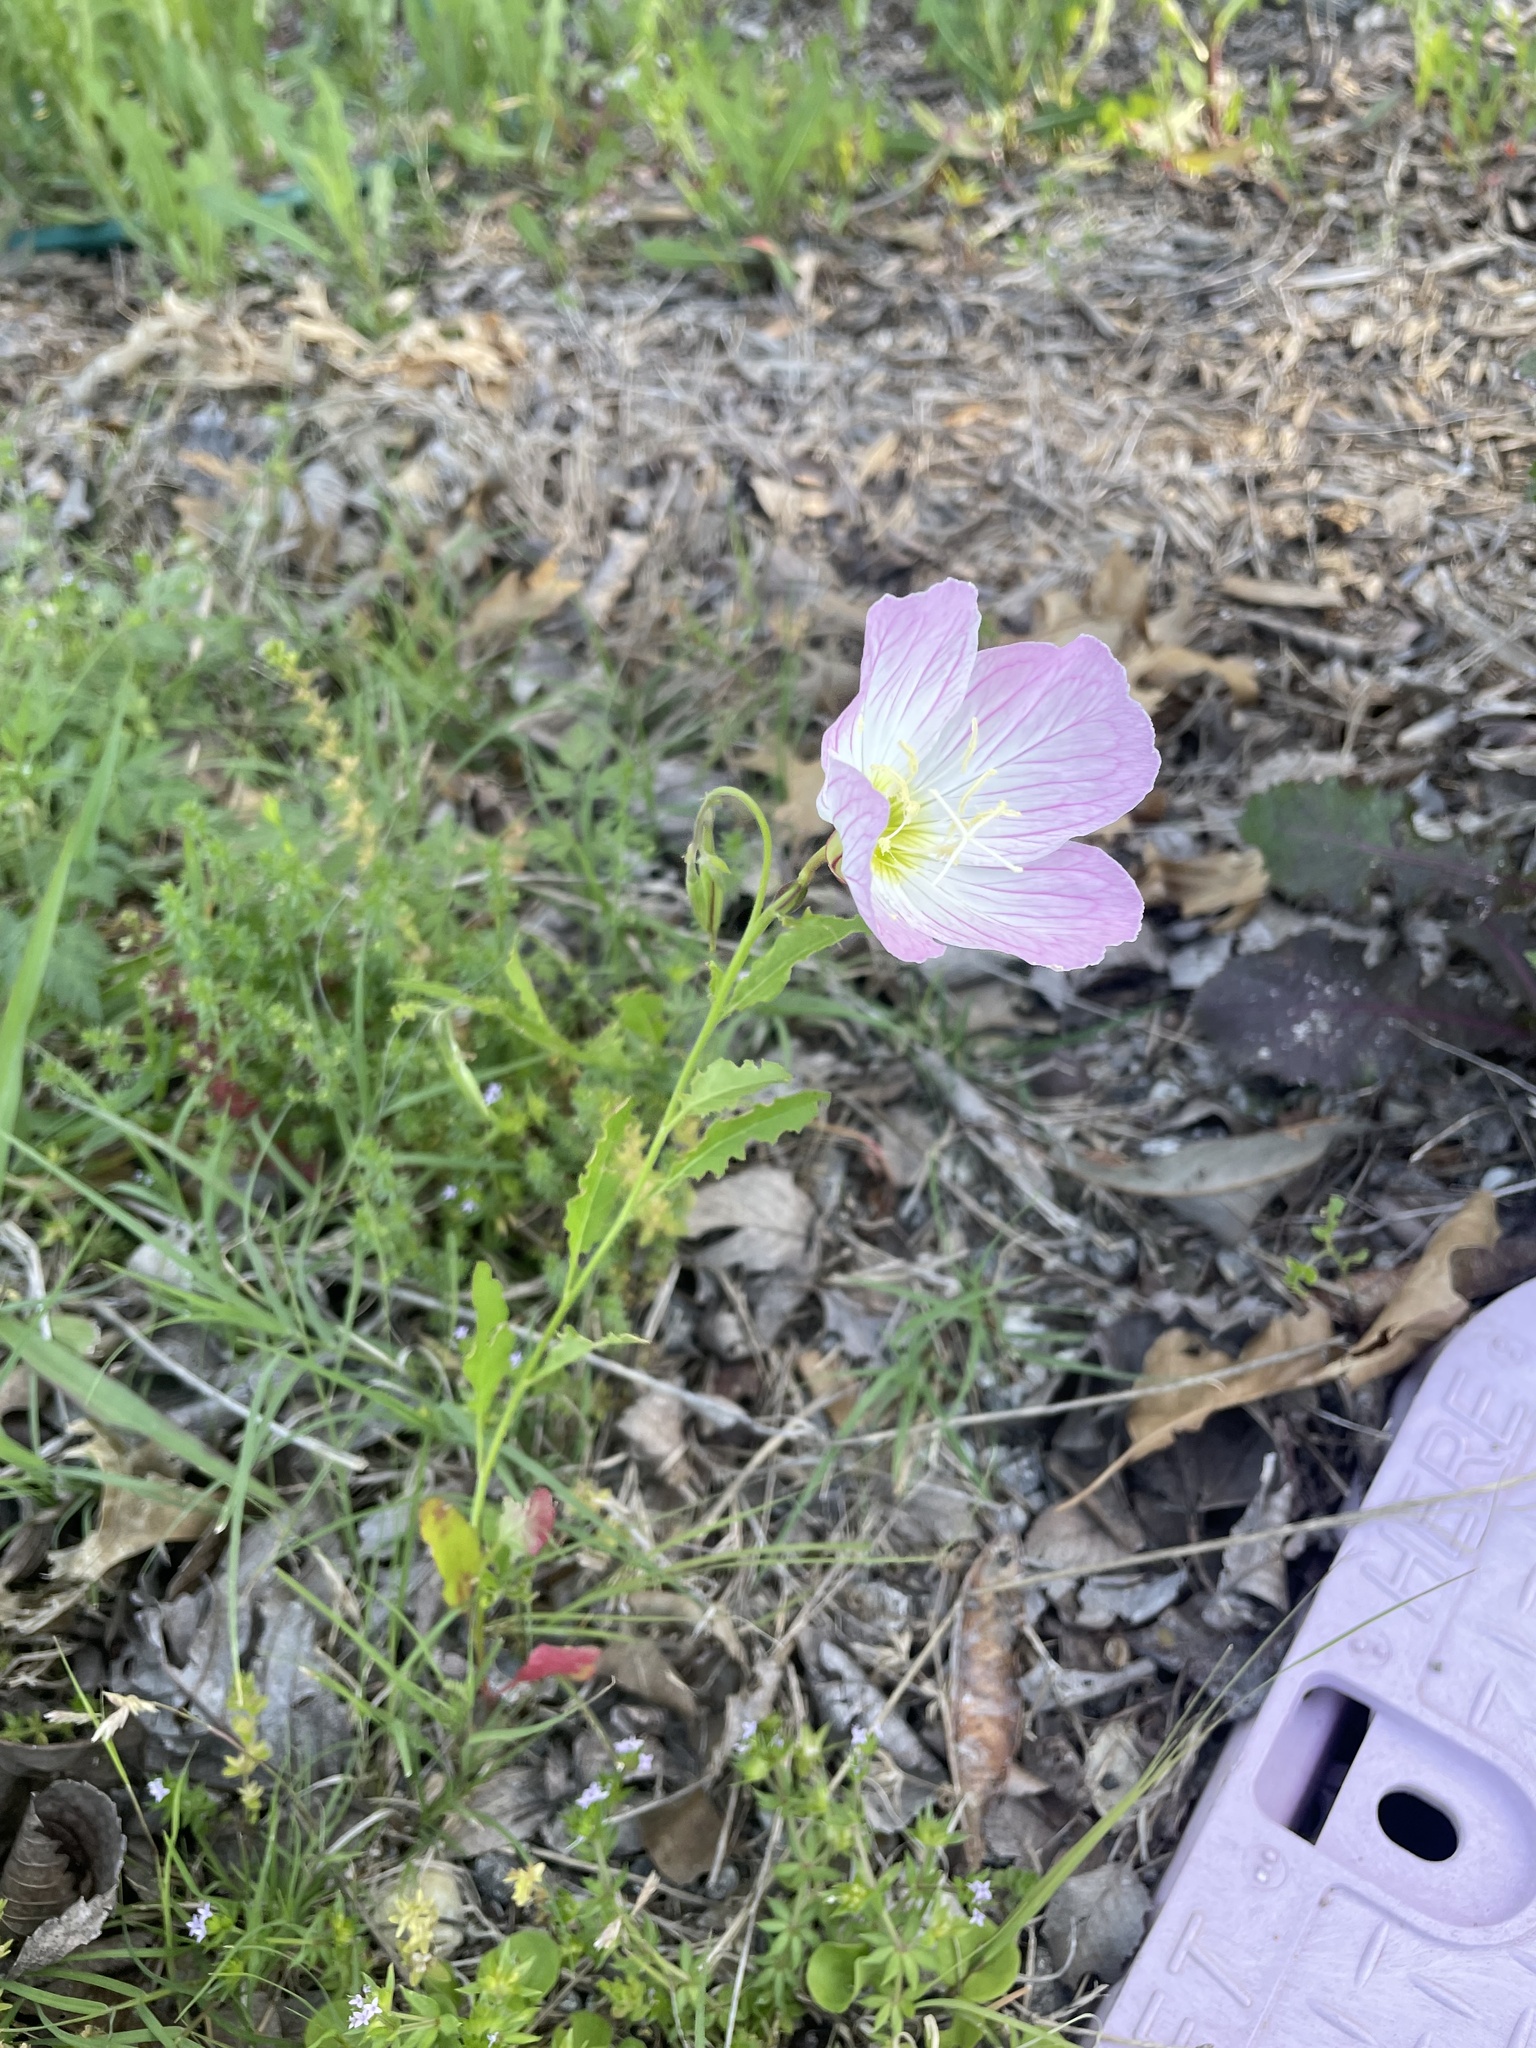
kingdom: Plantae
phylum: Tracheophyta
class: Magnoliopsida
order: Myrtales
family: Onagraceae
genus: Oenothera
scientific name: Oenothera speciosa
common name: White evening-primrose
